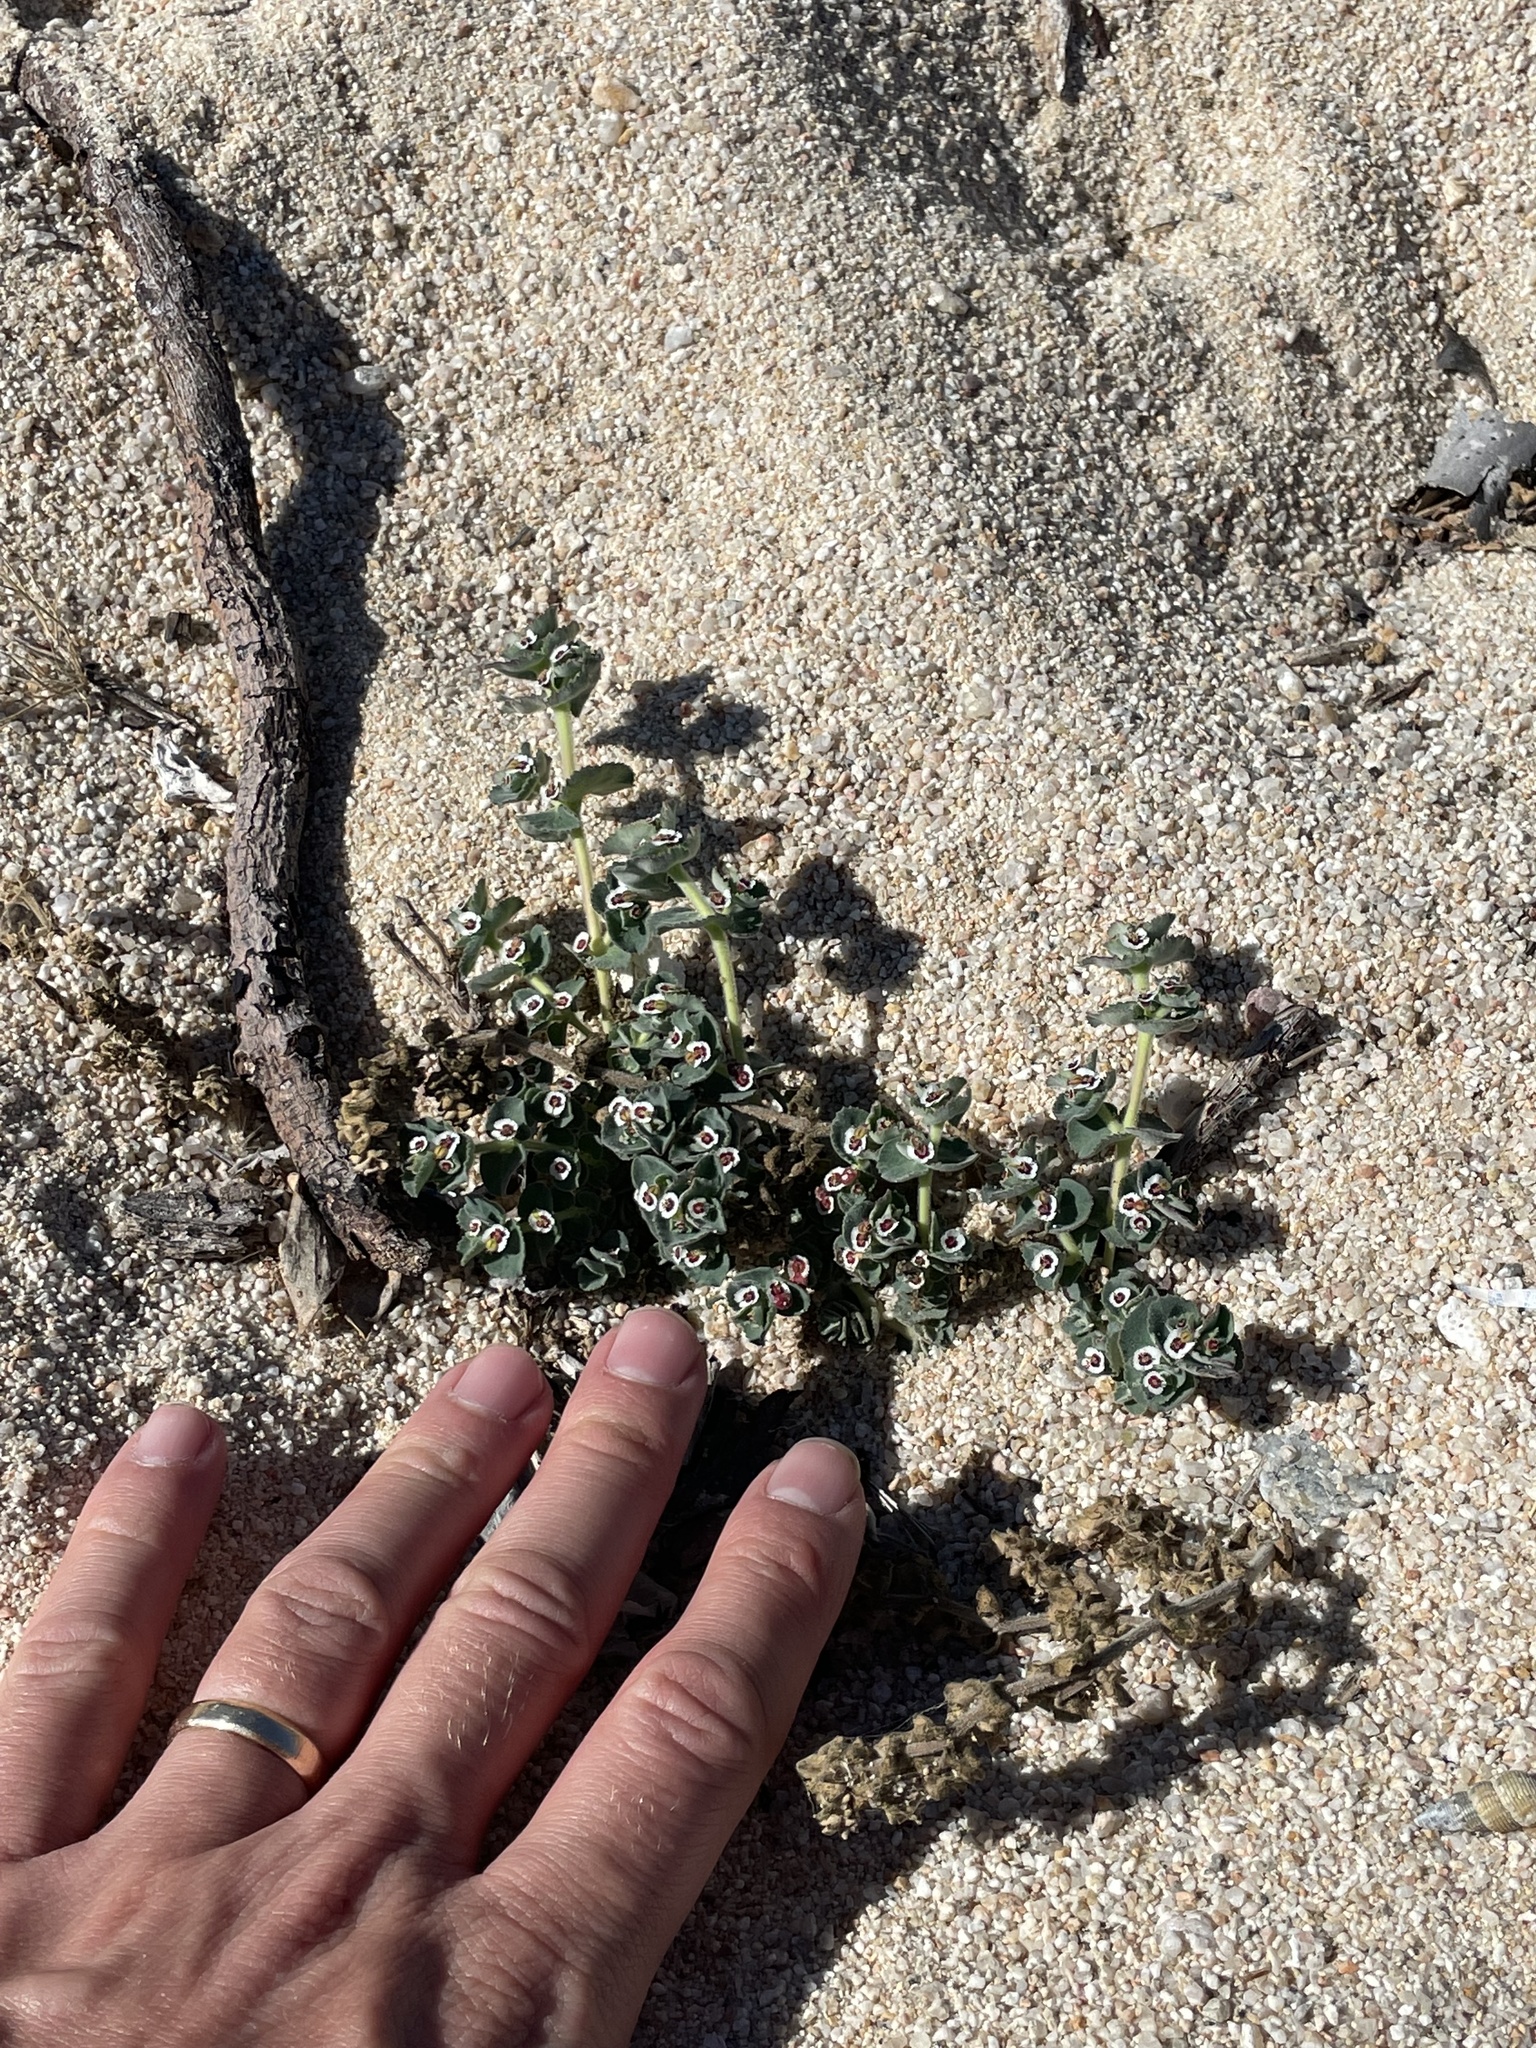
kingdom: Plantae
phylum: Tracheophyta
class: Magnoliopsida
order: Malpighiales
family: Euphorbiaceae
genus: Euphorbia
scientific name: Euphorbia leucophylla
